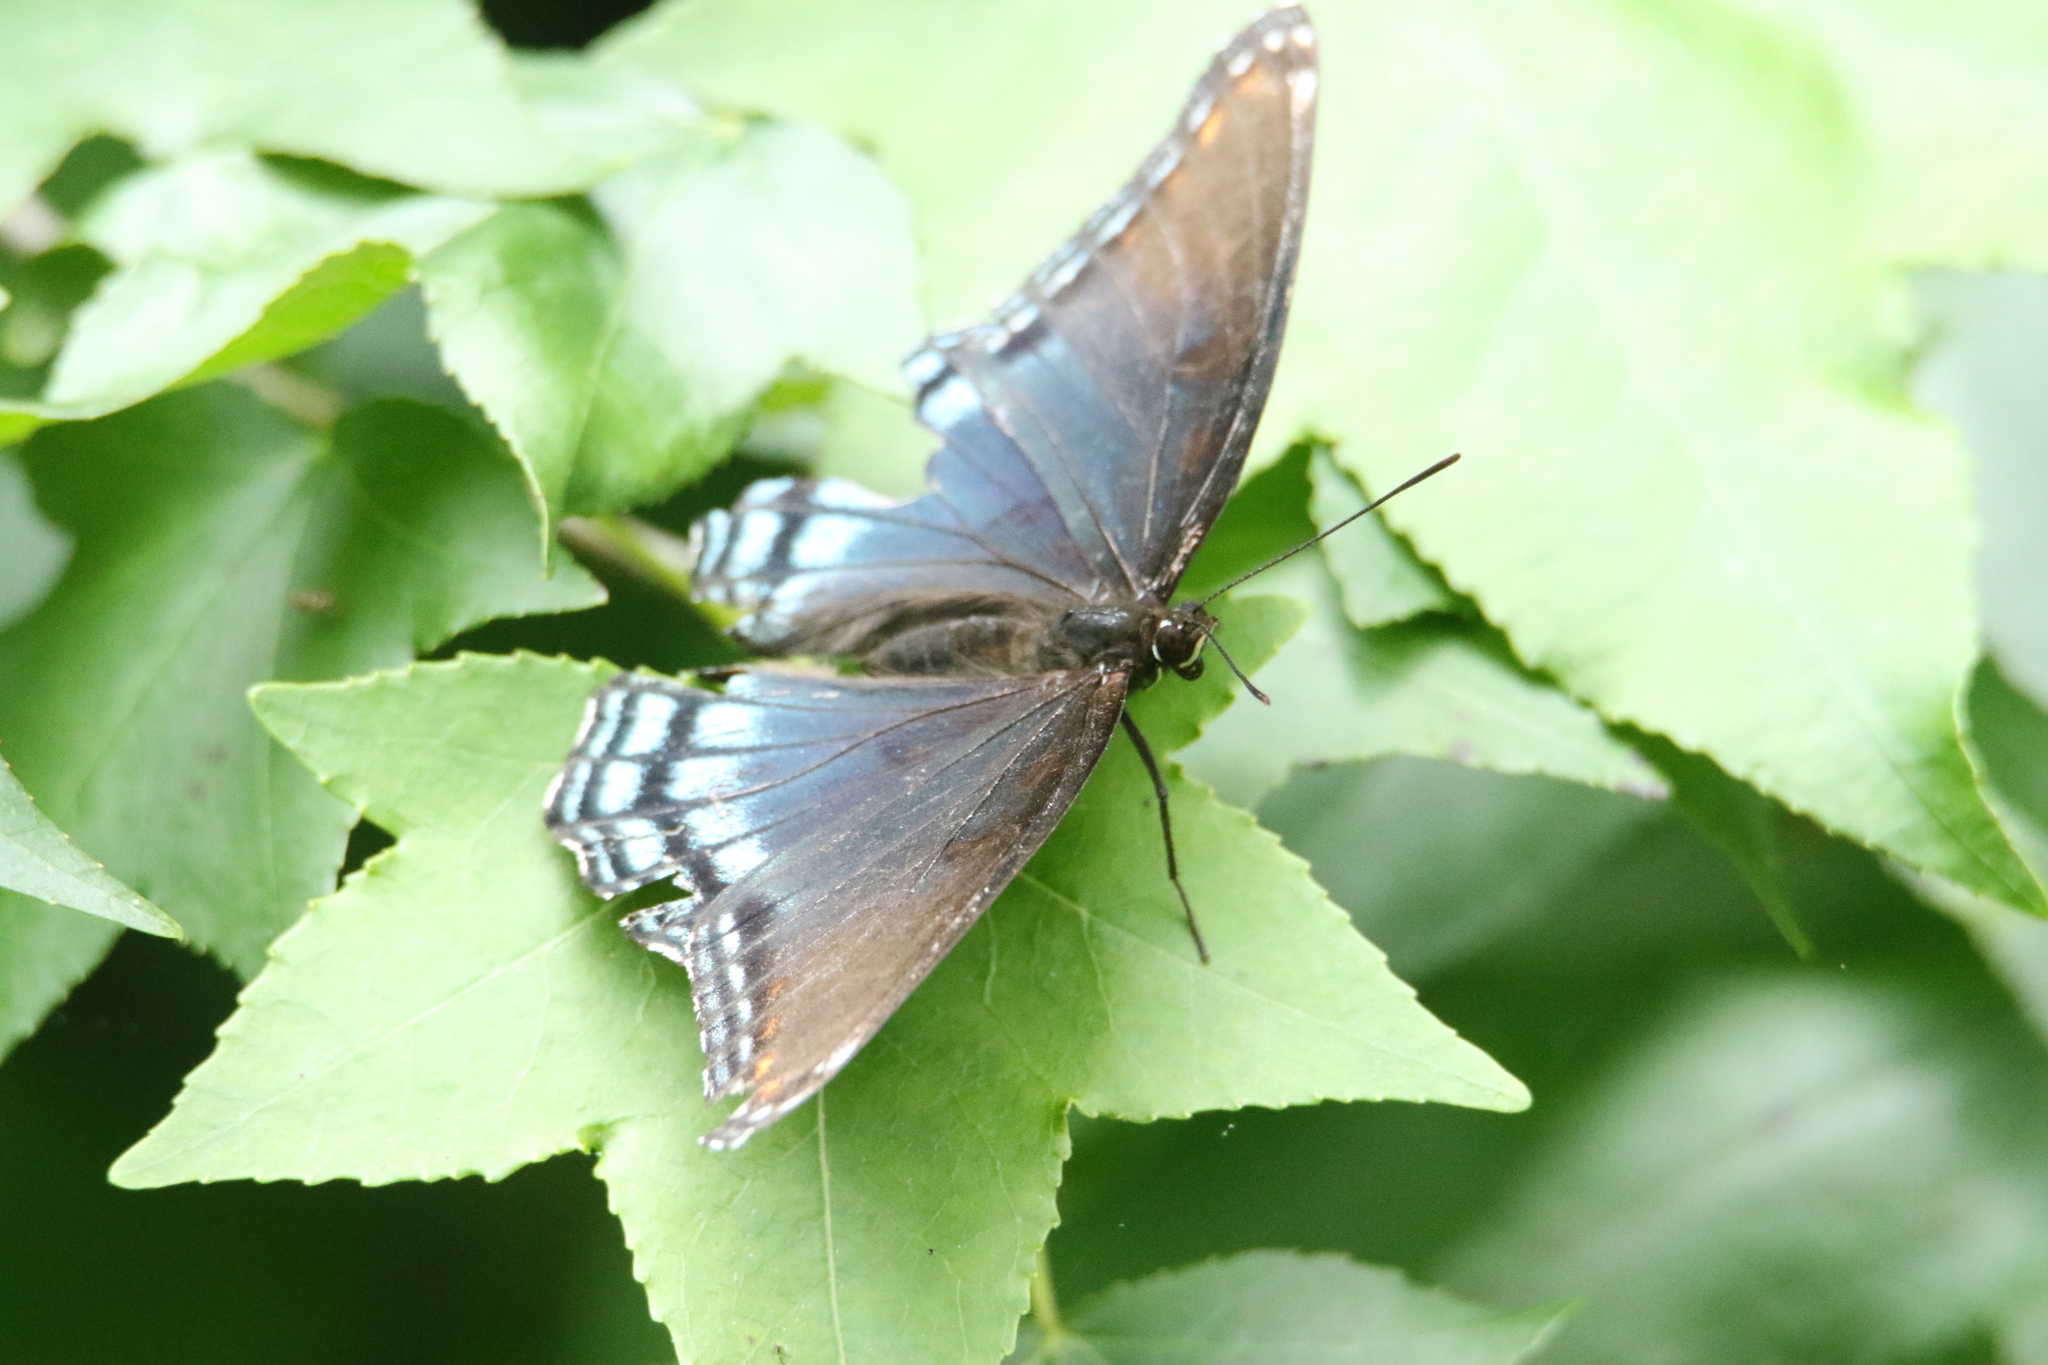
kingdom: Animalia
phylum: Arthropoda
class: Insecta
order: Lepidoptera
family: Nymphalidae
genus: Limenitis
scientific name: Limenitis astyanax
